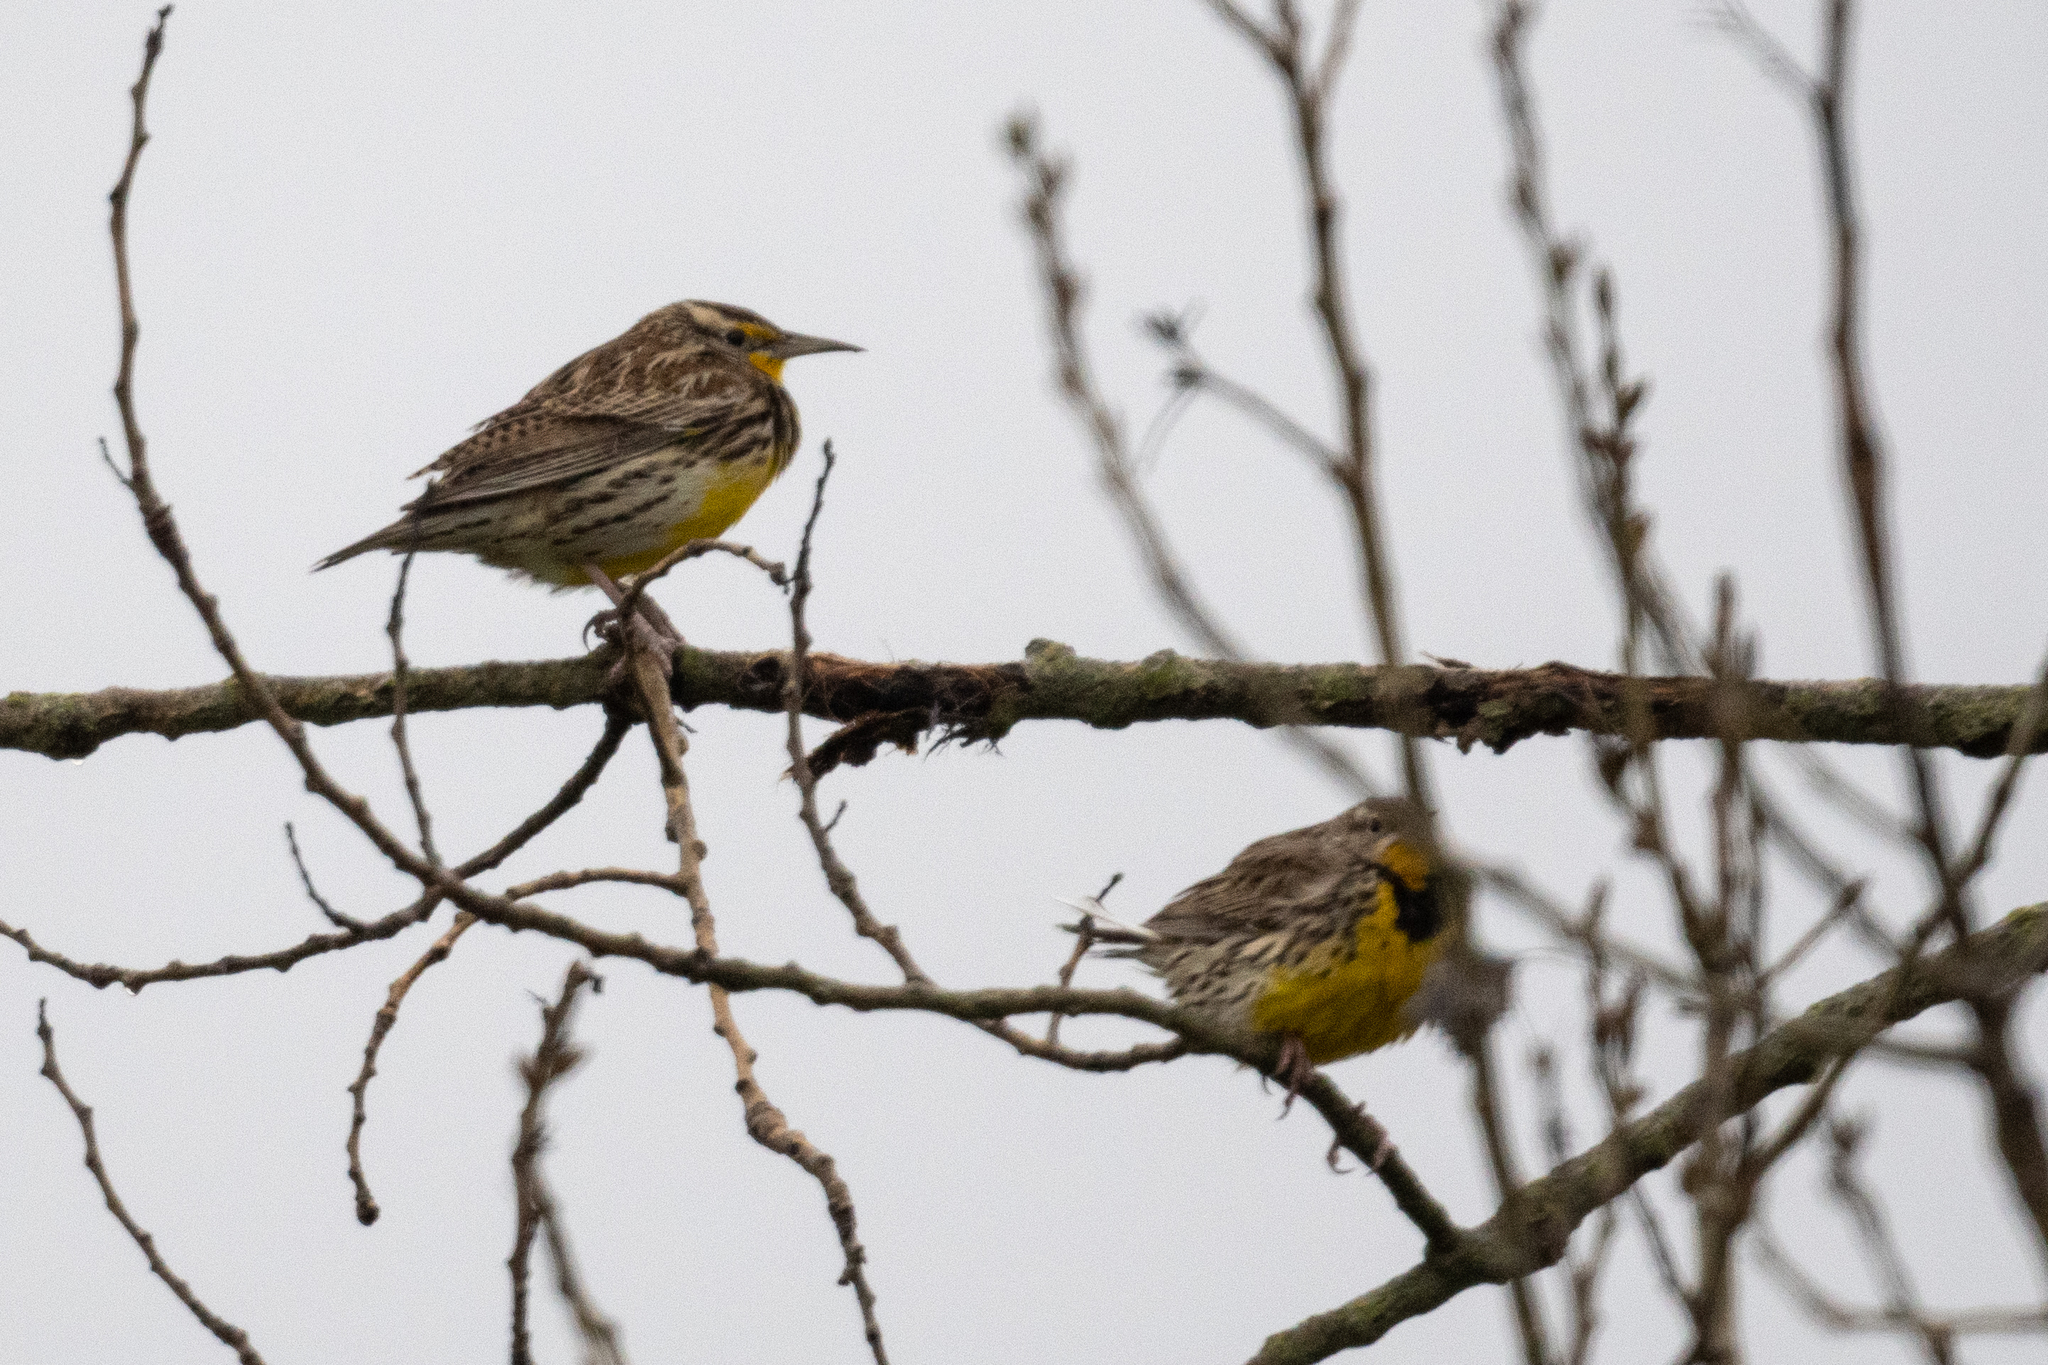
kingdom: Animalia
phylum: Chordata
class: Aves
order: Passeriformes
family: Icteridae
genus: Sturnella
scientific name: Sturnella neglecta
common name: Western meadowlark
